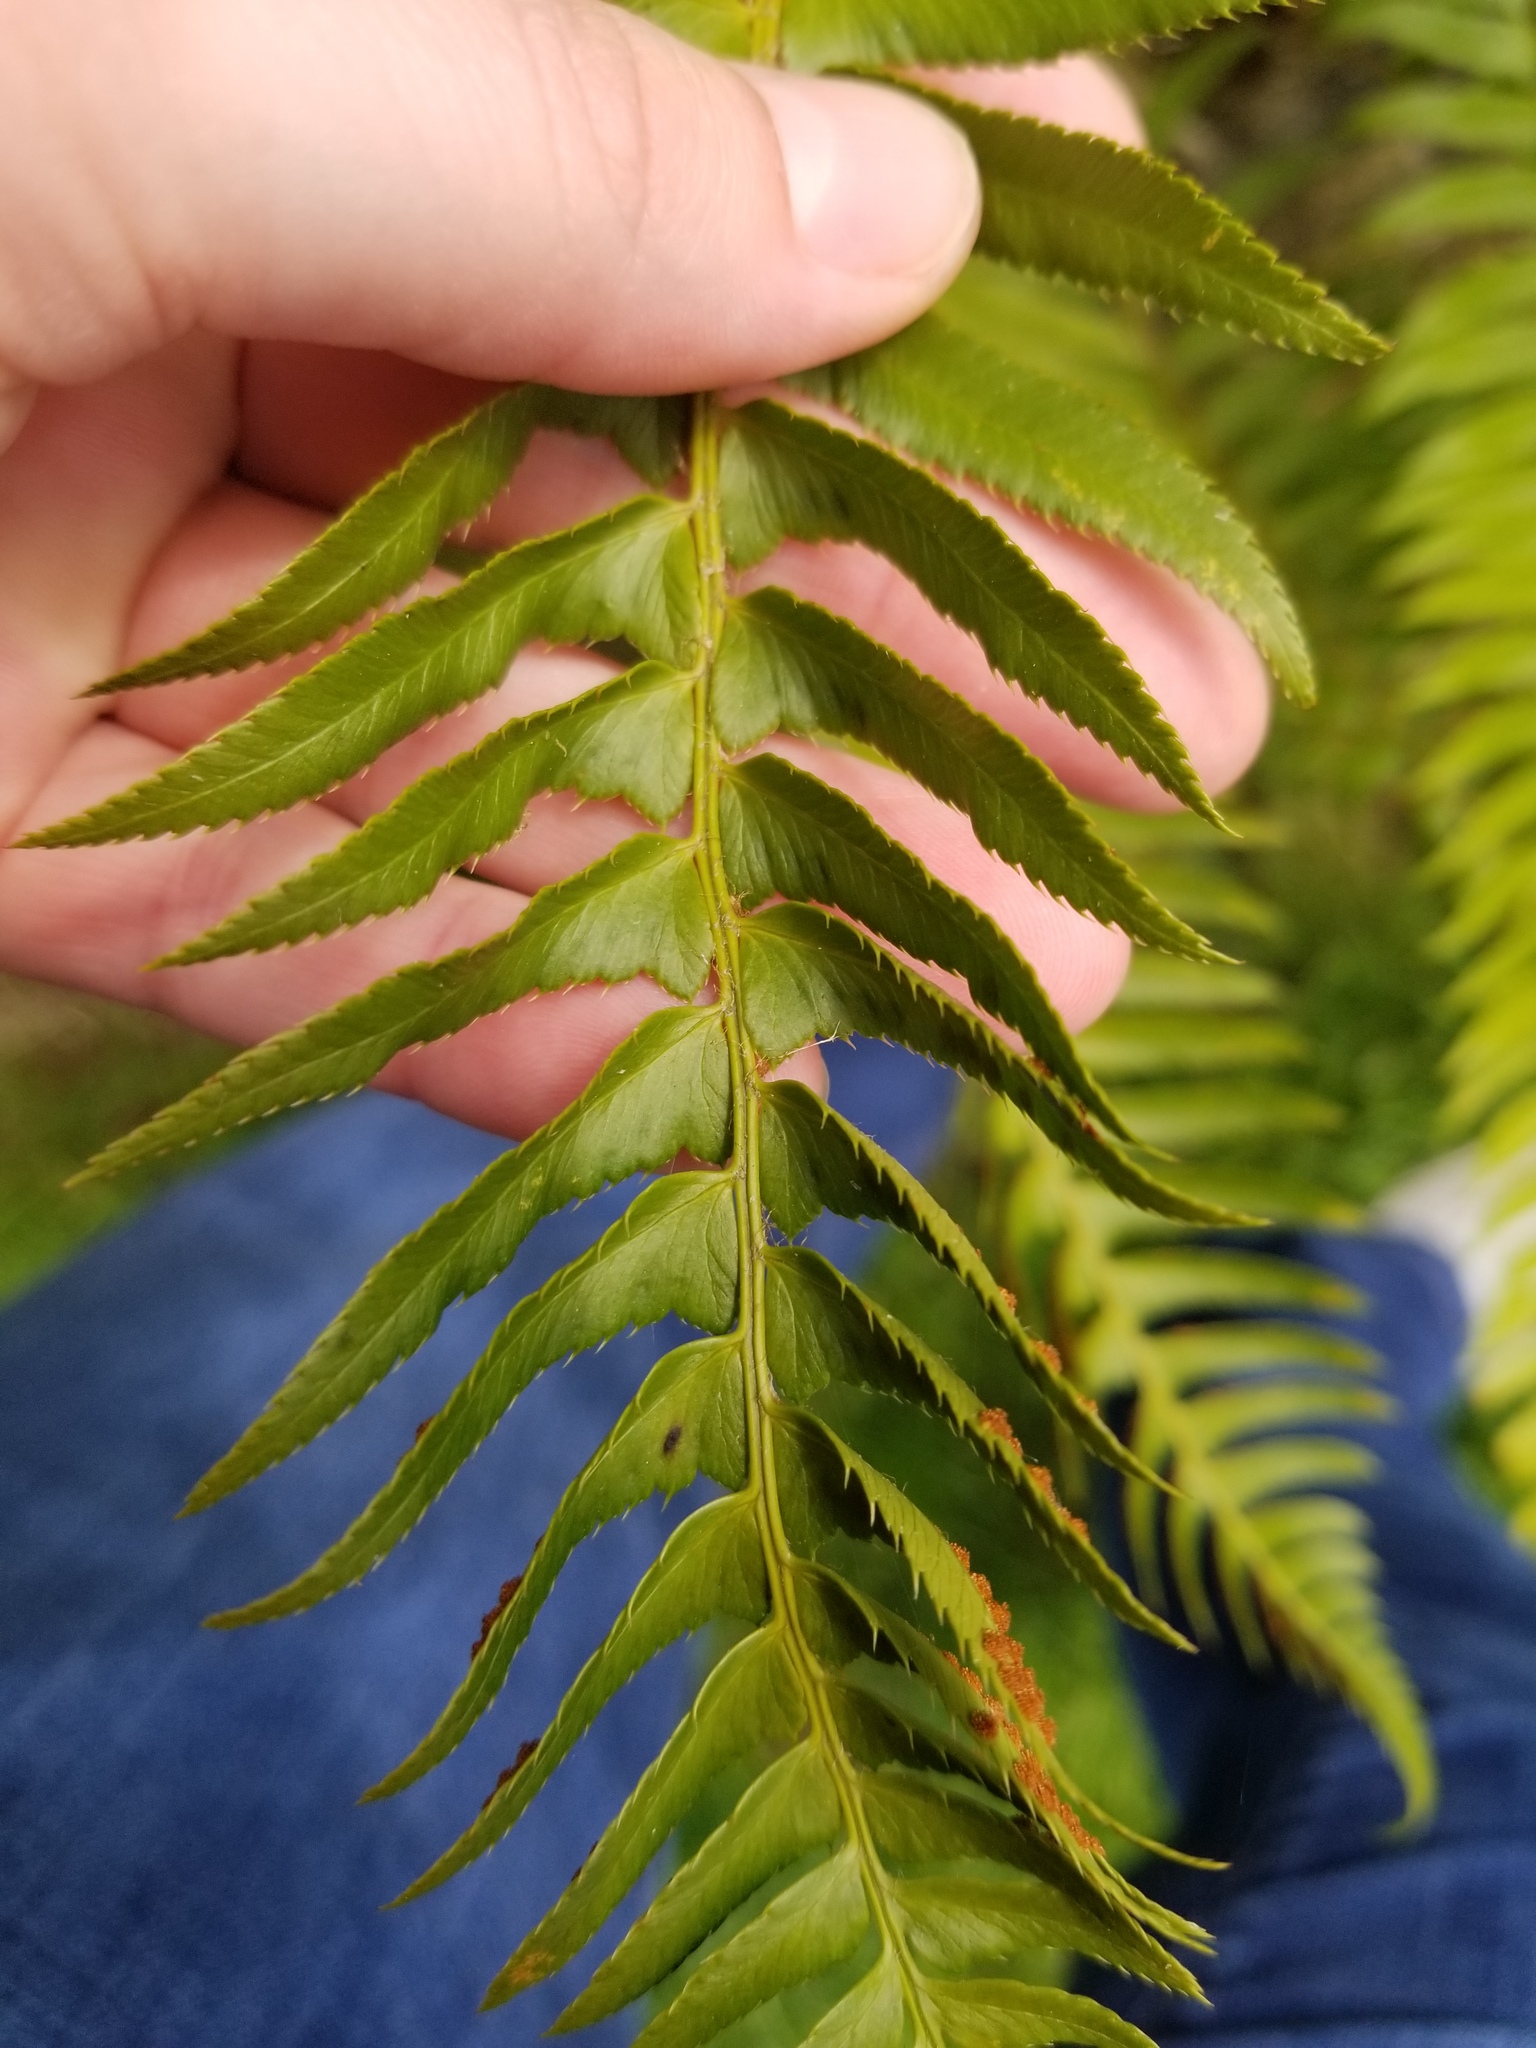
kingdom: Plantae
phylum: Tracheophyta
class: Polypodiopsida
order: Polypodiales
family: Dryopteridaceae
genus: Polystichum
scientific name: Polystichum munitum
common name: Western sword-fern
